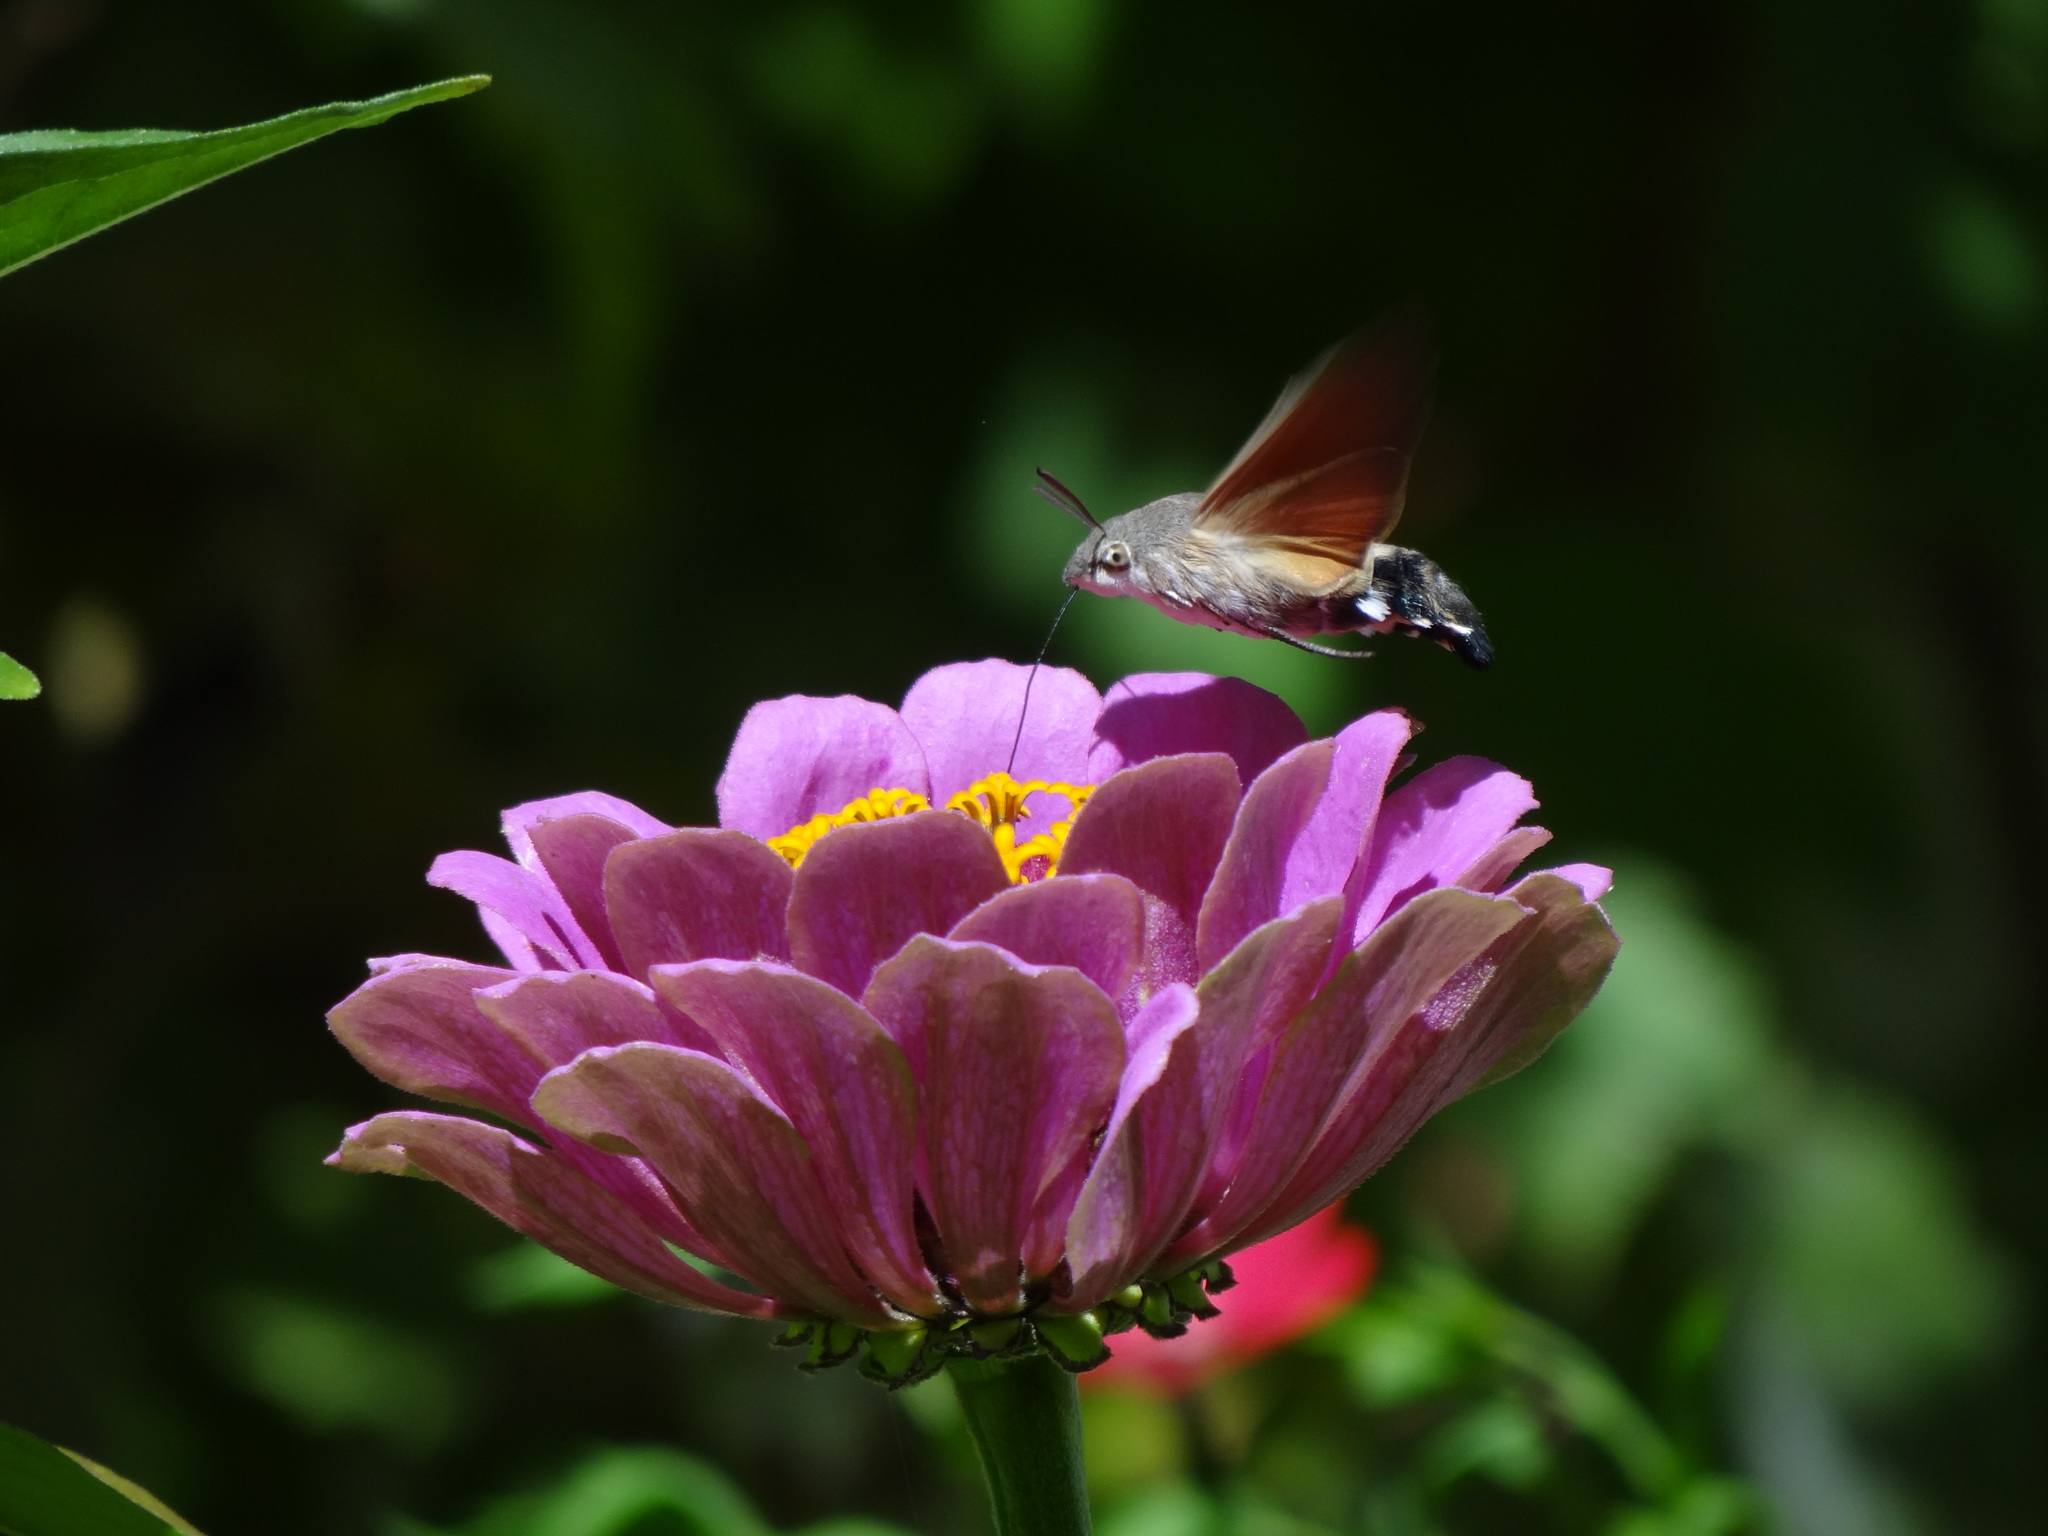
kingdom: Animalia
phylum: Arthropoda
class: Insecta
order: Lepidoptera
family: Sphingidae
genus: Macroglossum
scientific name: Macroglossum stellatarum
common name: Humming-bird hawk-moth
